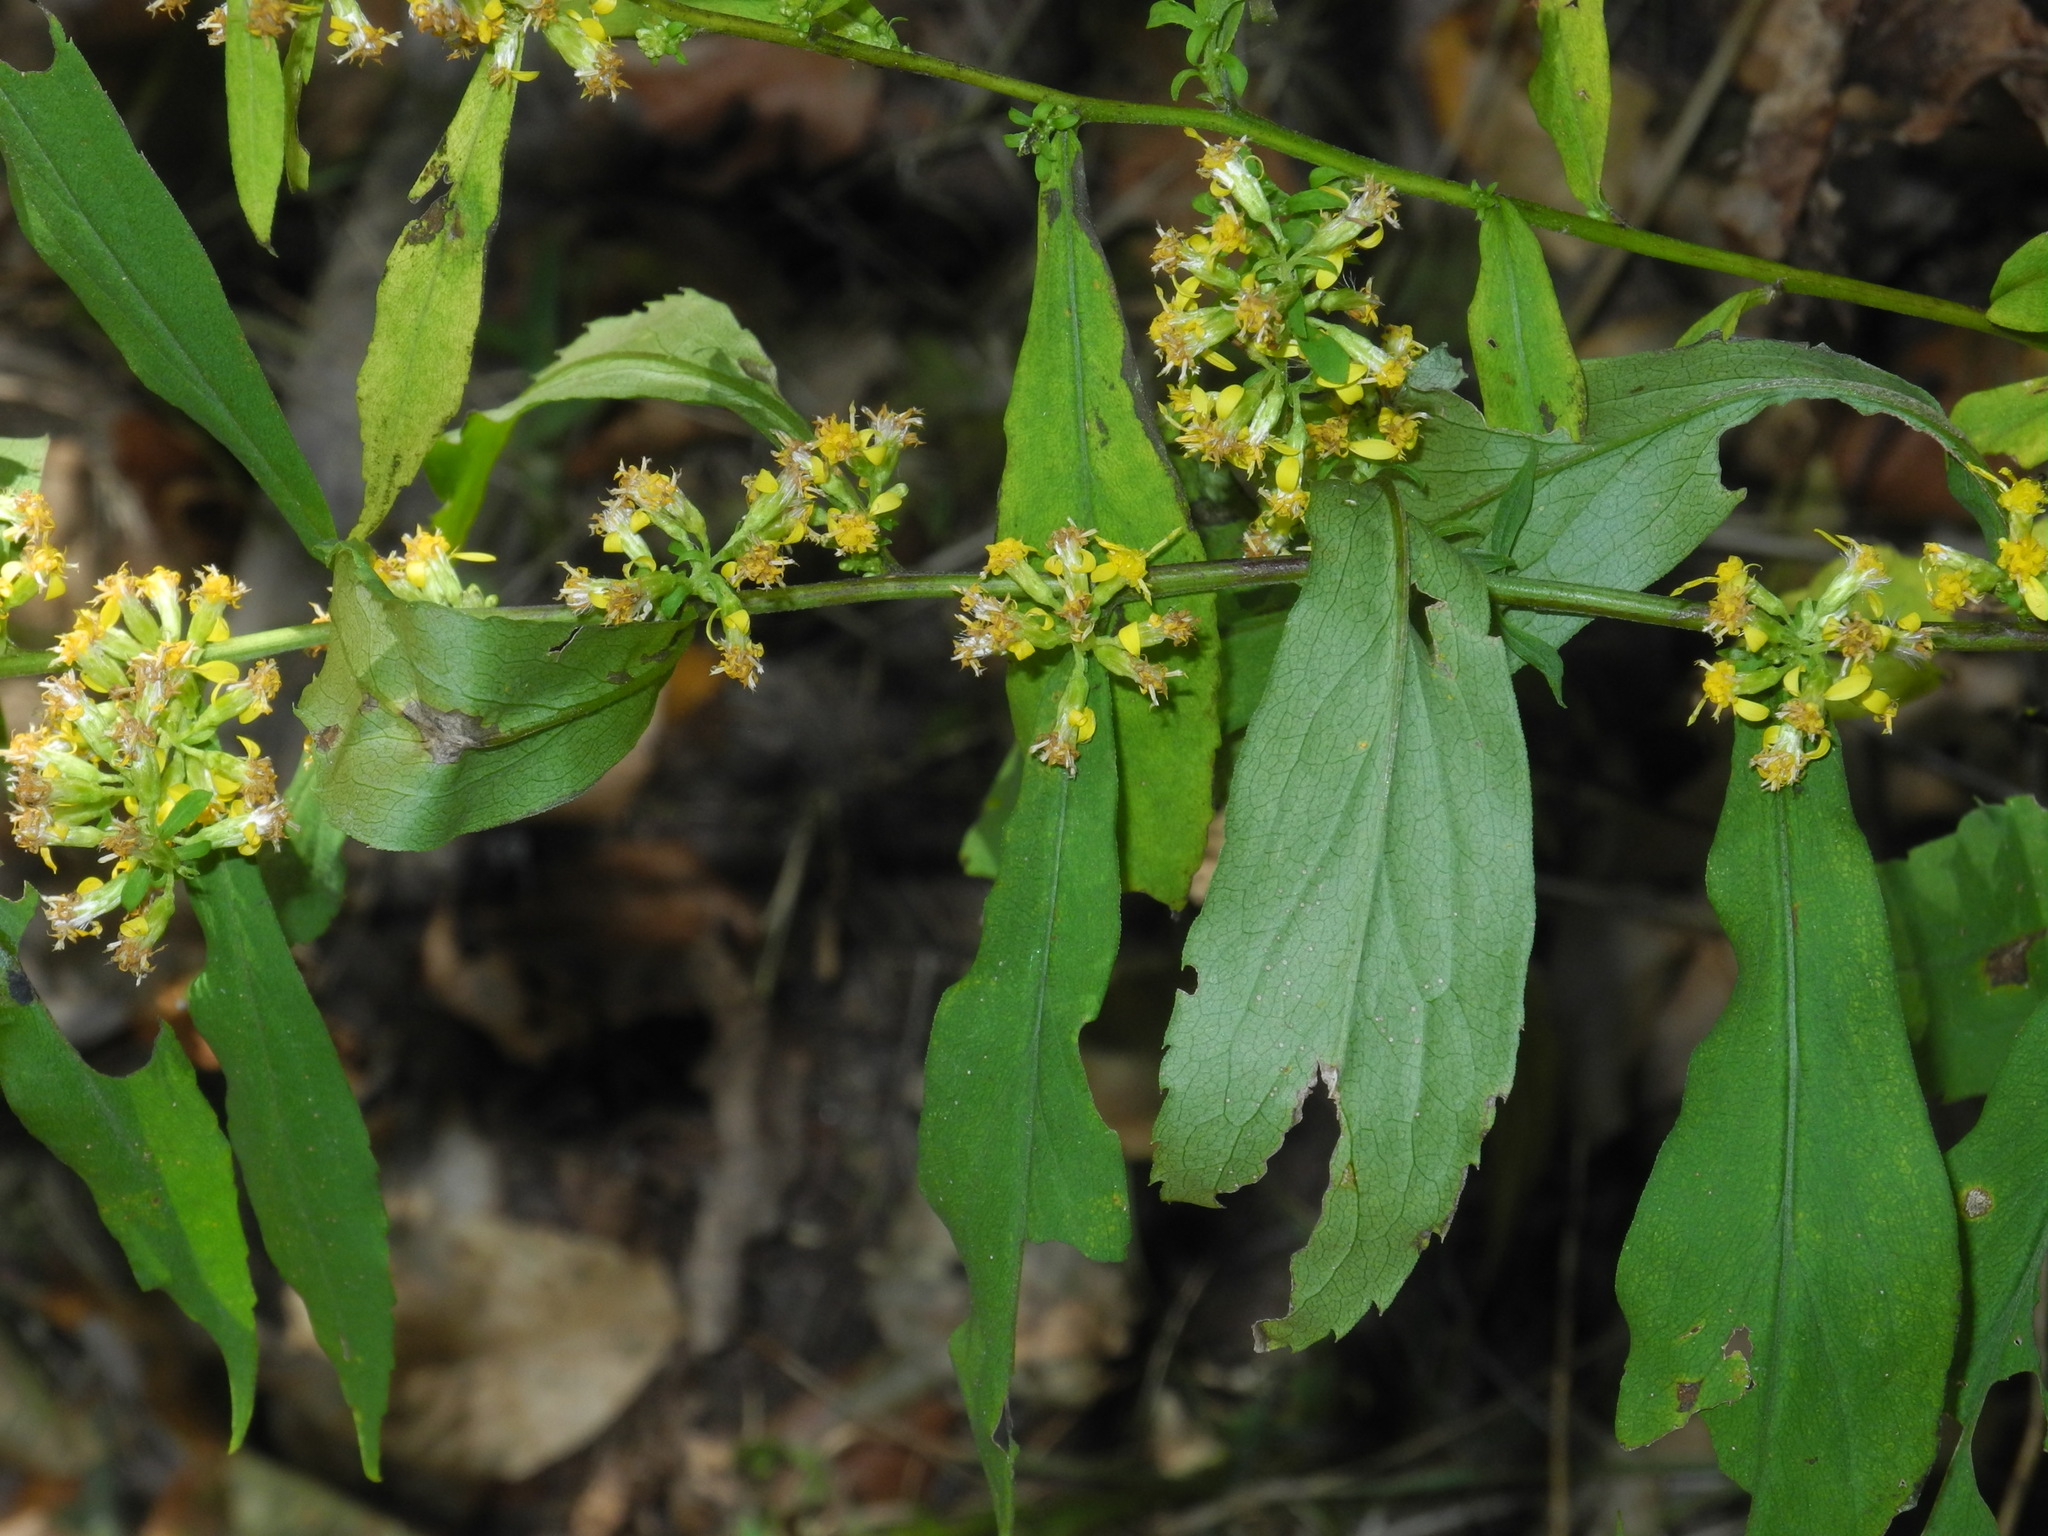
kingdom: Plantae
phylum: Tracheophyta
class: Magnoliopsida
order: Asterales
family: Asteraceae
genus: Solidago
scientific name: Solidago curtisii
